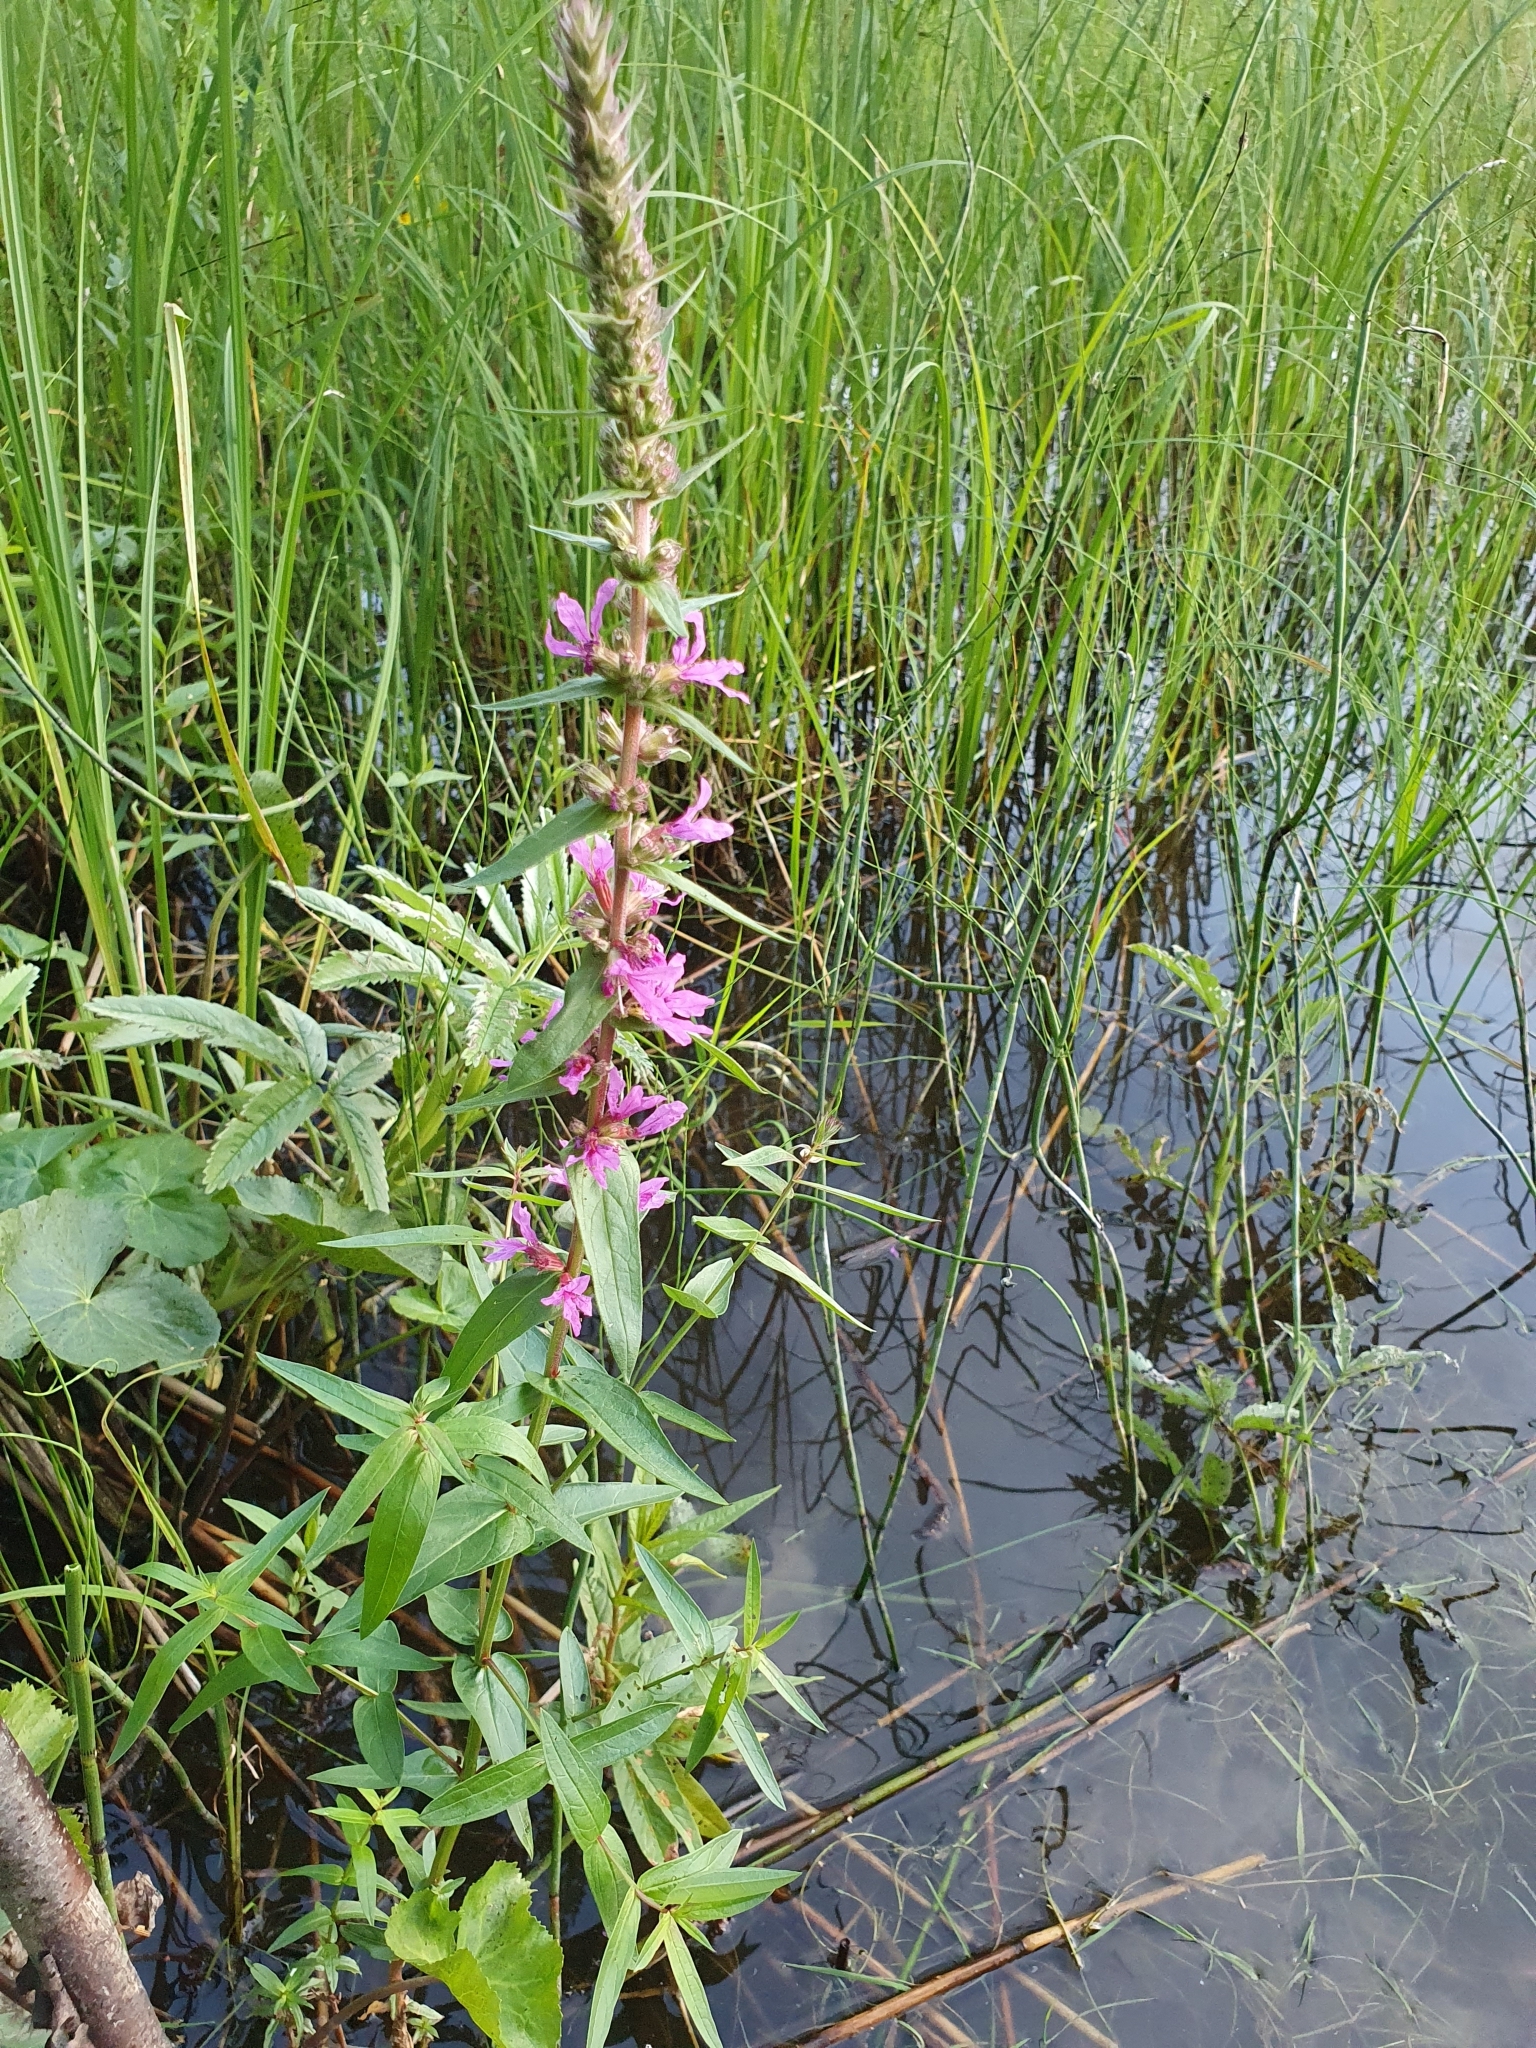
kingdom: Plantae
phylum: Tracheophyta
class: Magnoliopsida
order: Myrtales
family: Lythraceae
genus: Lythrum
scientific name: Lythrum salicaria
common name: Purple loosestrife
